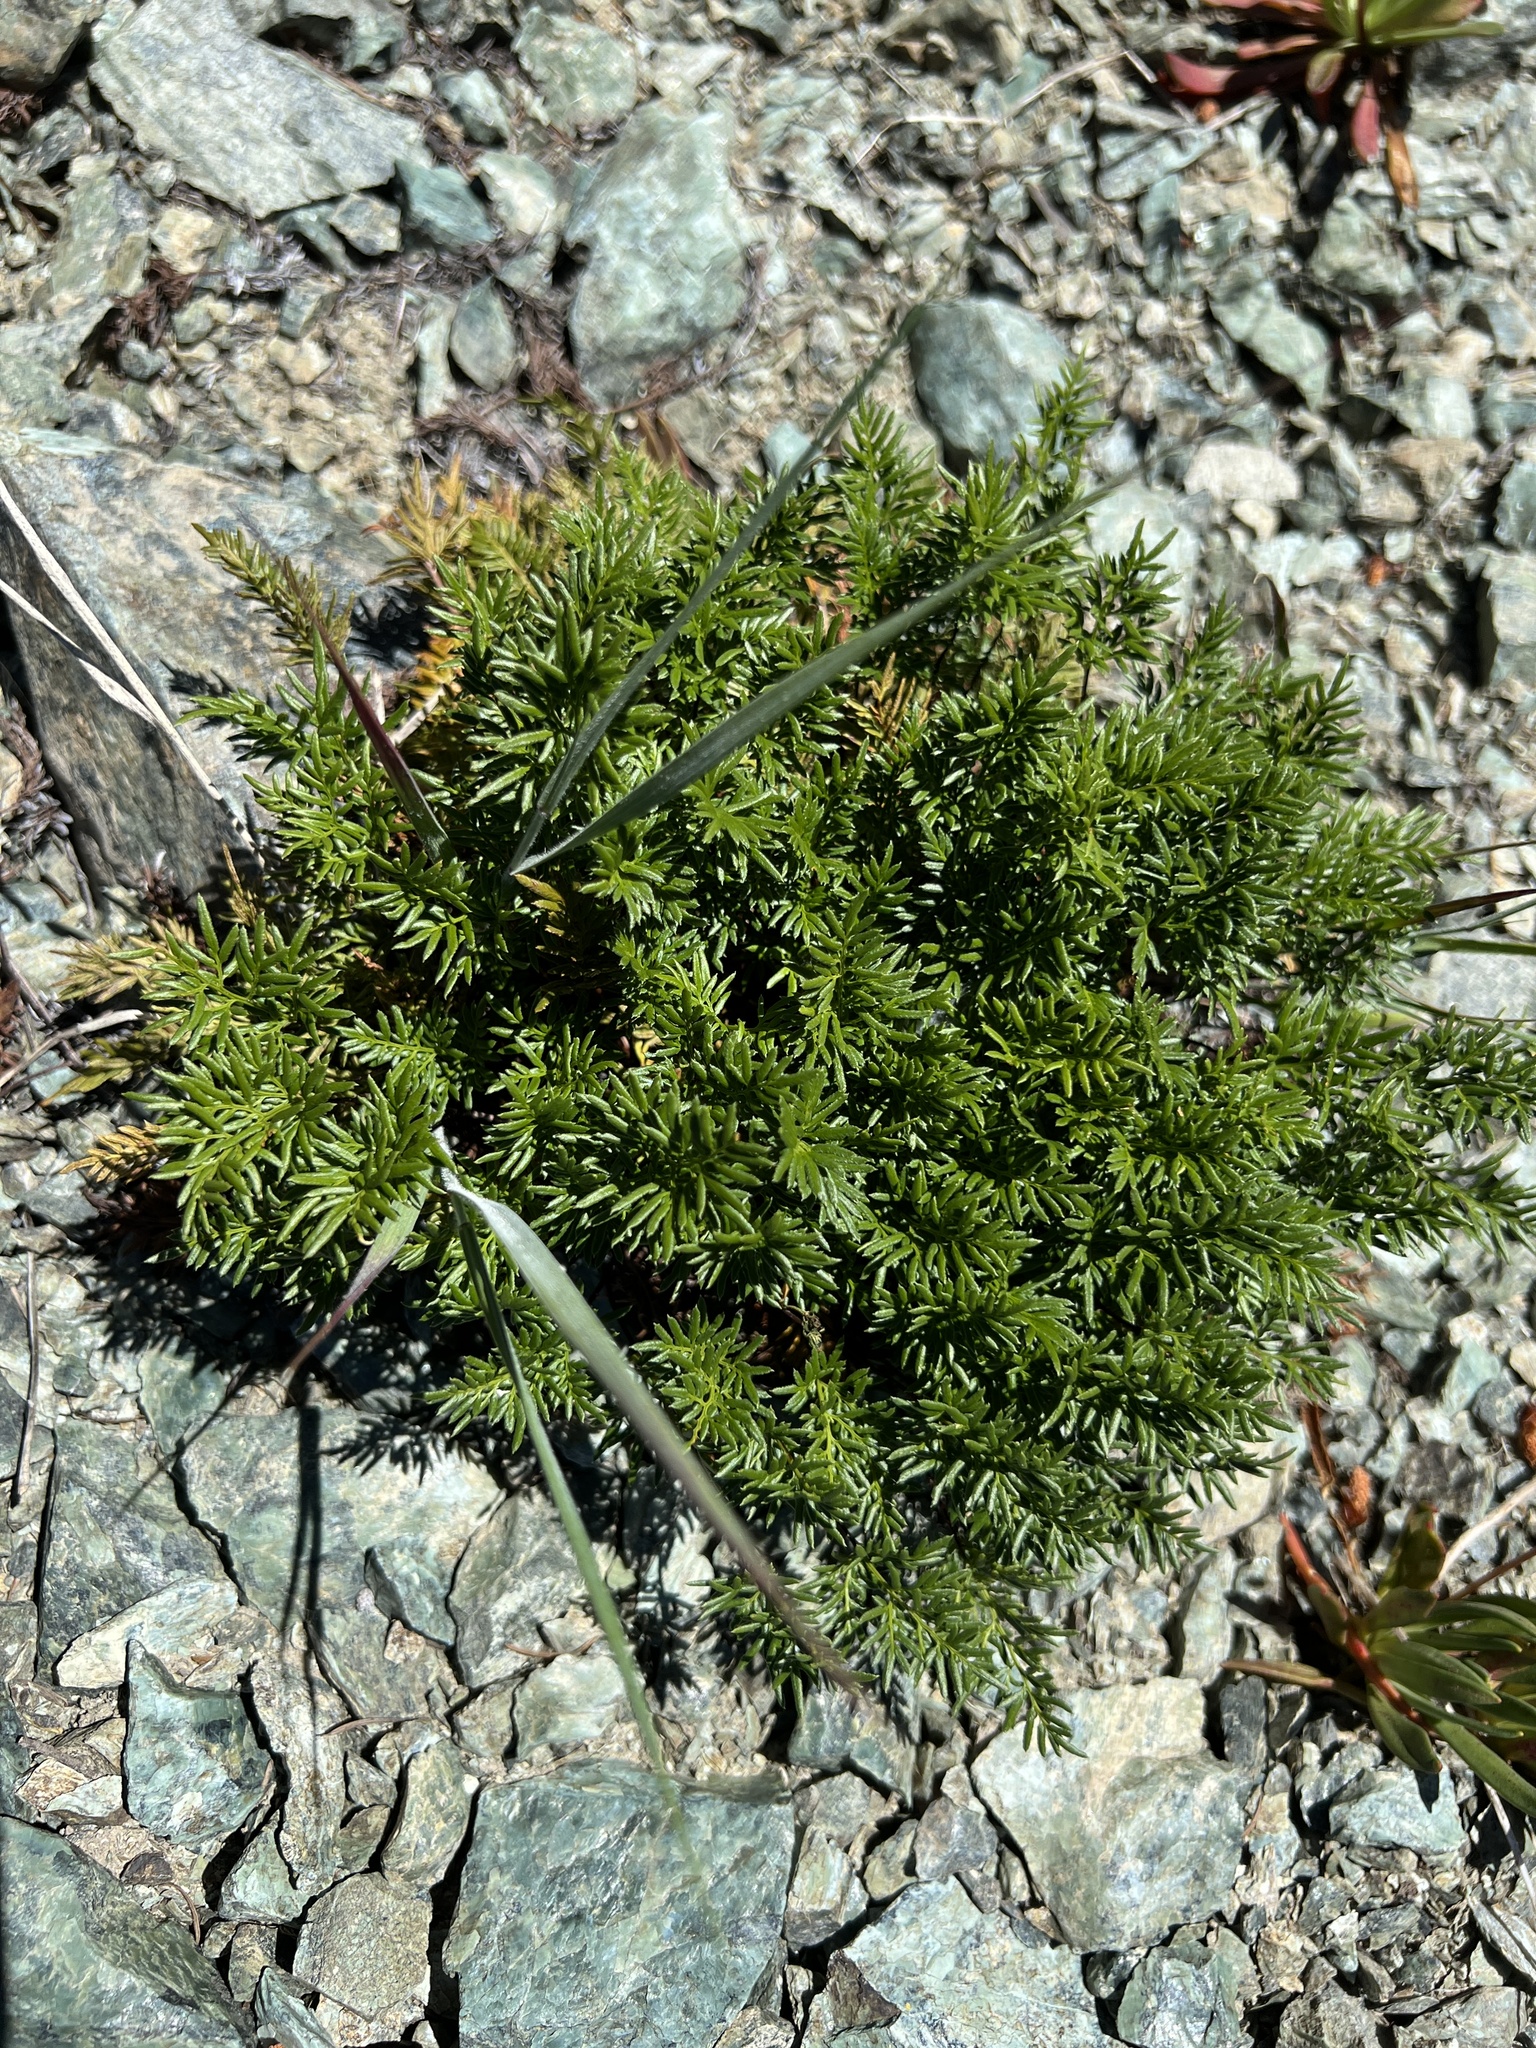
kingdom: Plantae
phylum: Tracheophyta
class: Polypodiopsida
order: Polypodiales
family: Pteridaceae
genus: Aspidotis
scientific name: Aspidotis densa
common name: Indian's dream
